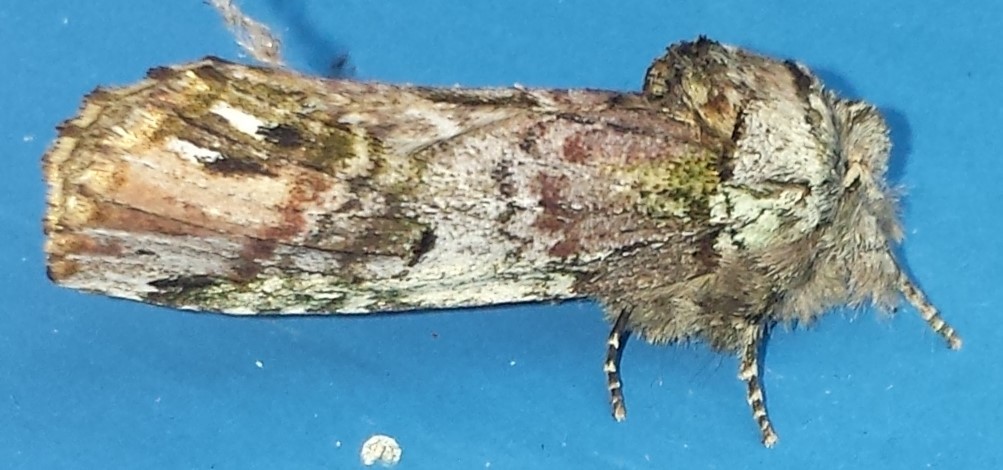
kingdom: Animalia
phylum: Arthropoda
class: Insecta
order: Lepidoptera
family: Notodontidae
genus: Schizura
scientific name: Schizura
